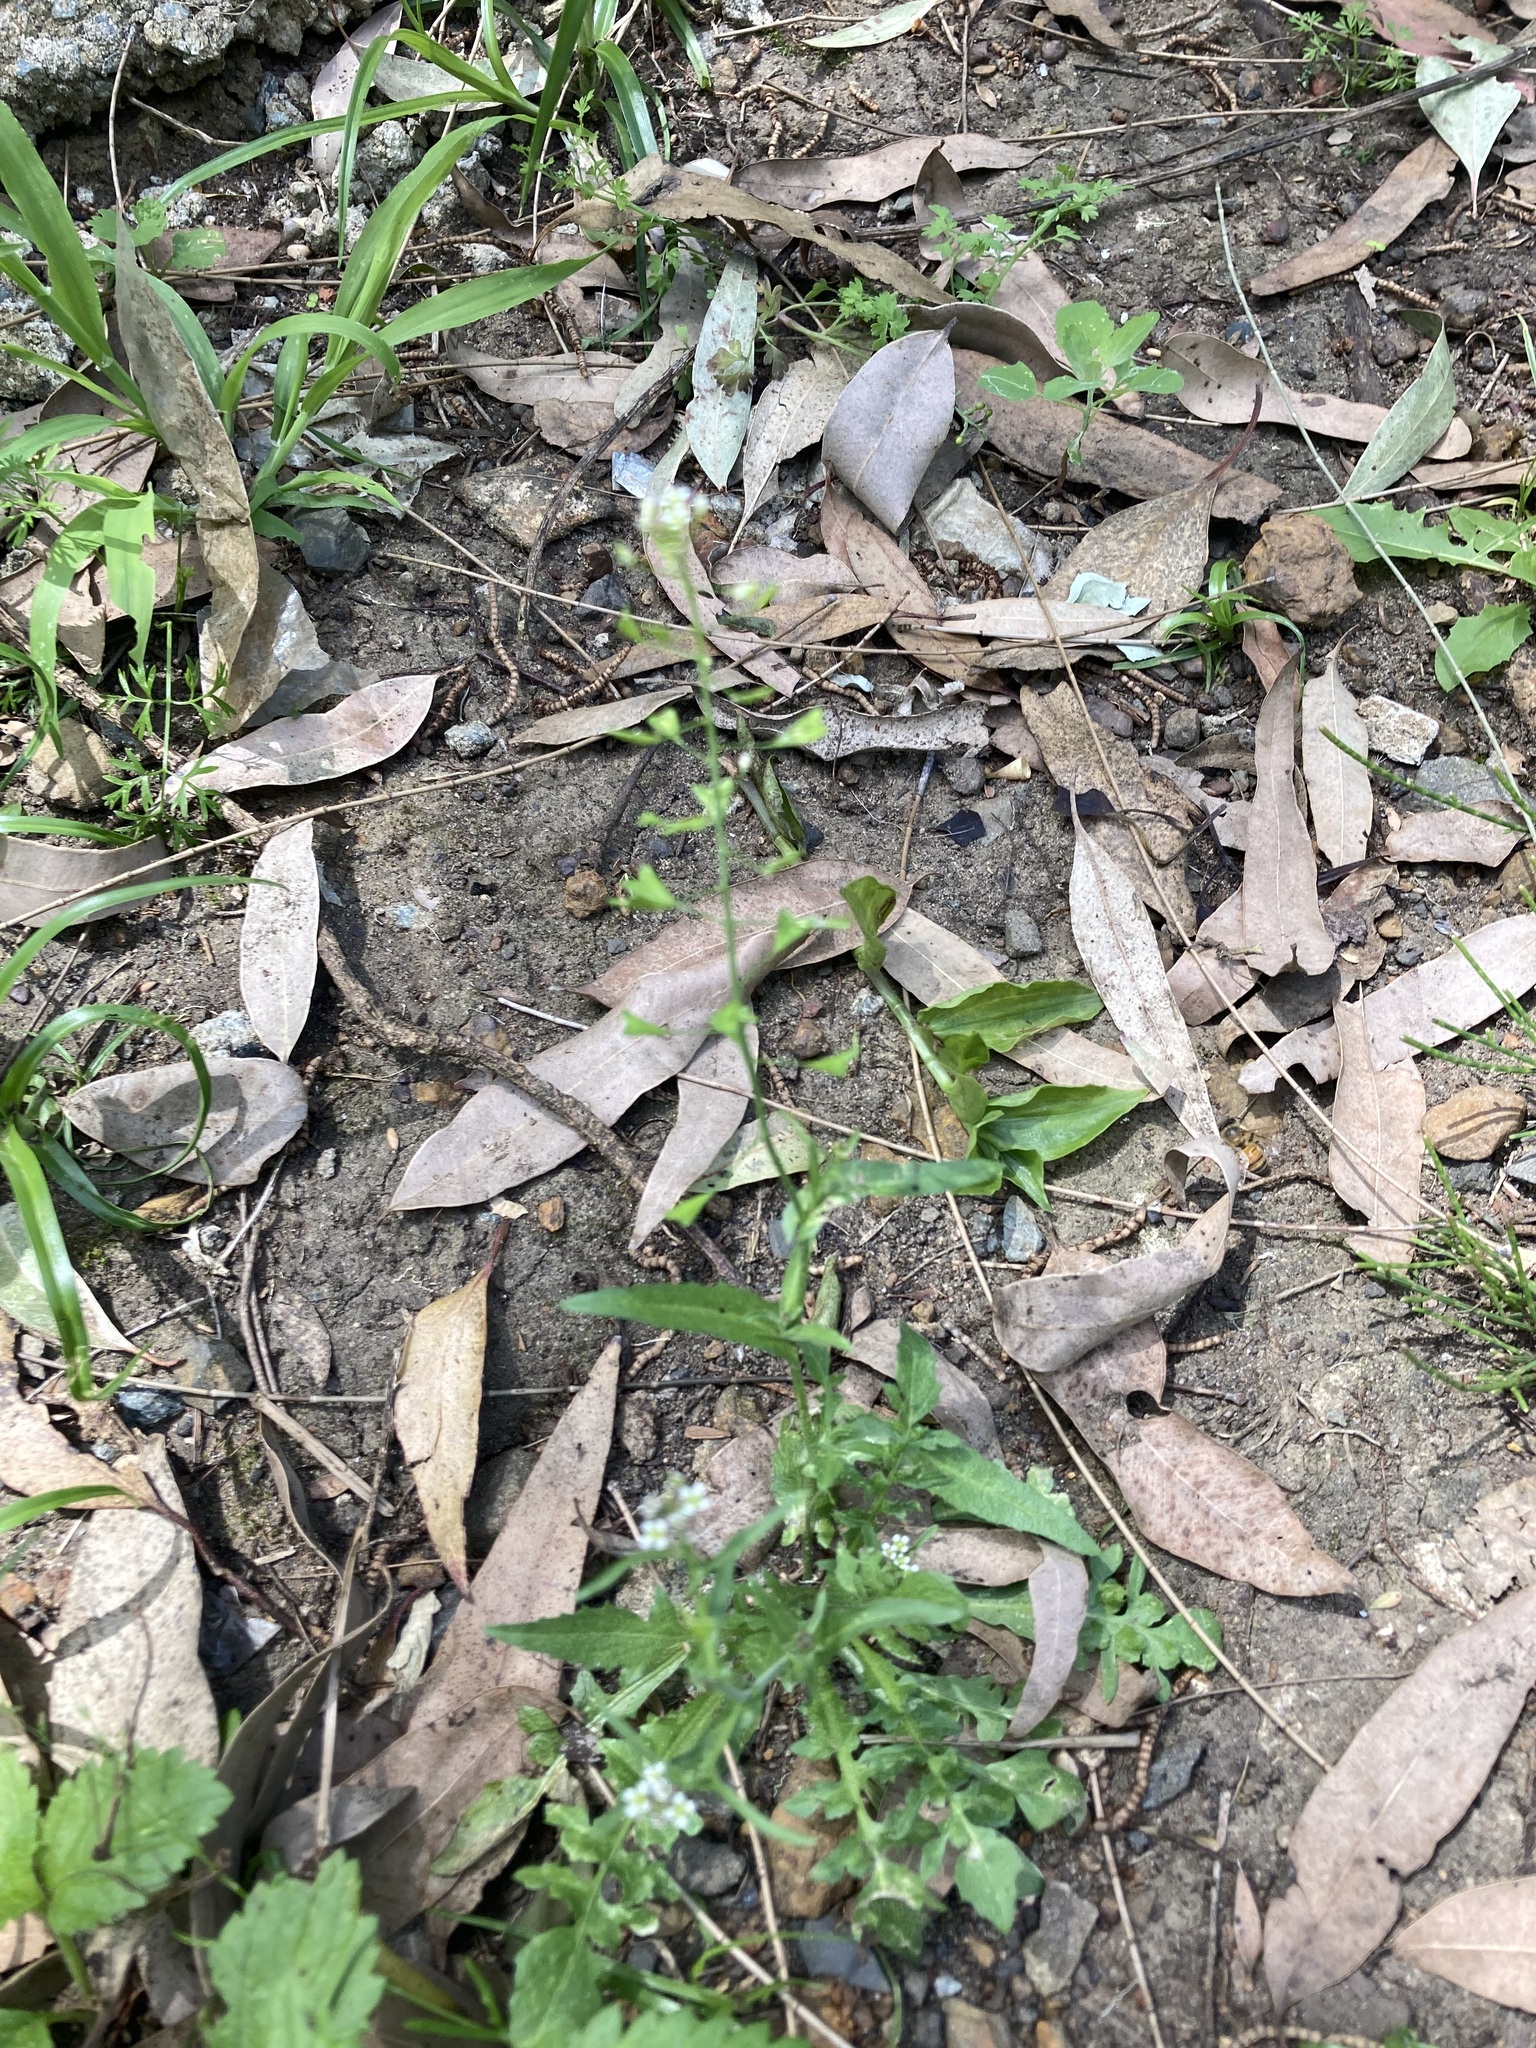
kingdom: Plantae
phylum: Tracheophyta
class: Magnoliopsida
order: Brassicales
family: Brassicaceae
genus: Capsella
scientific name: Capsella bursa-pastoris
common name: Shepherd's purse
